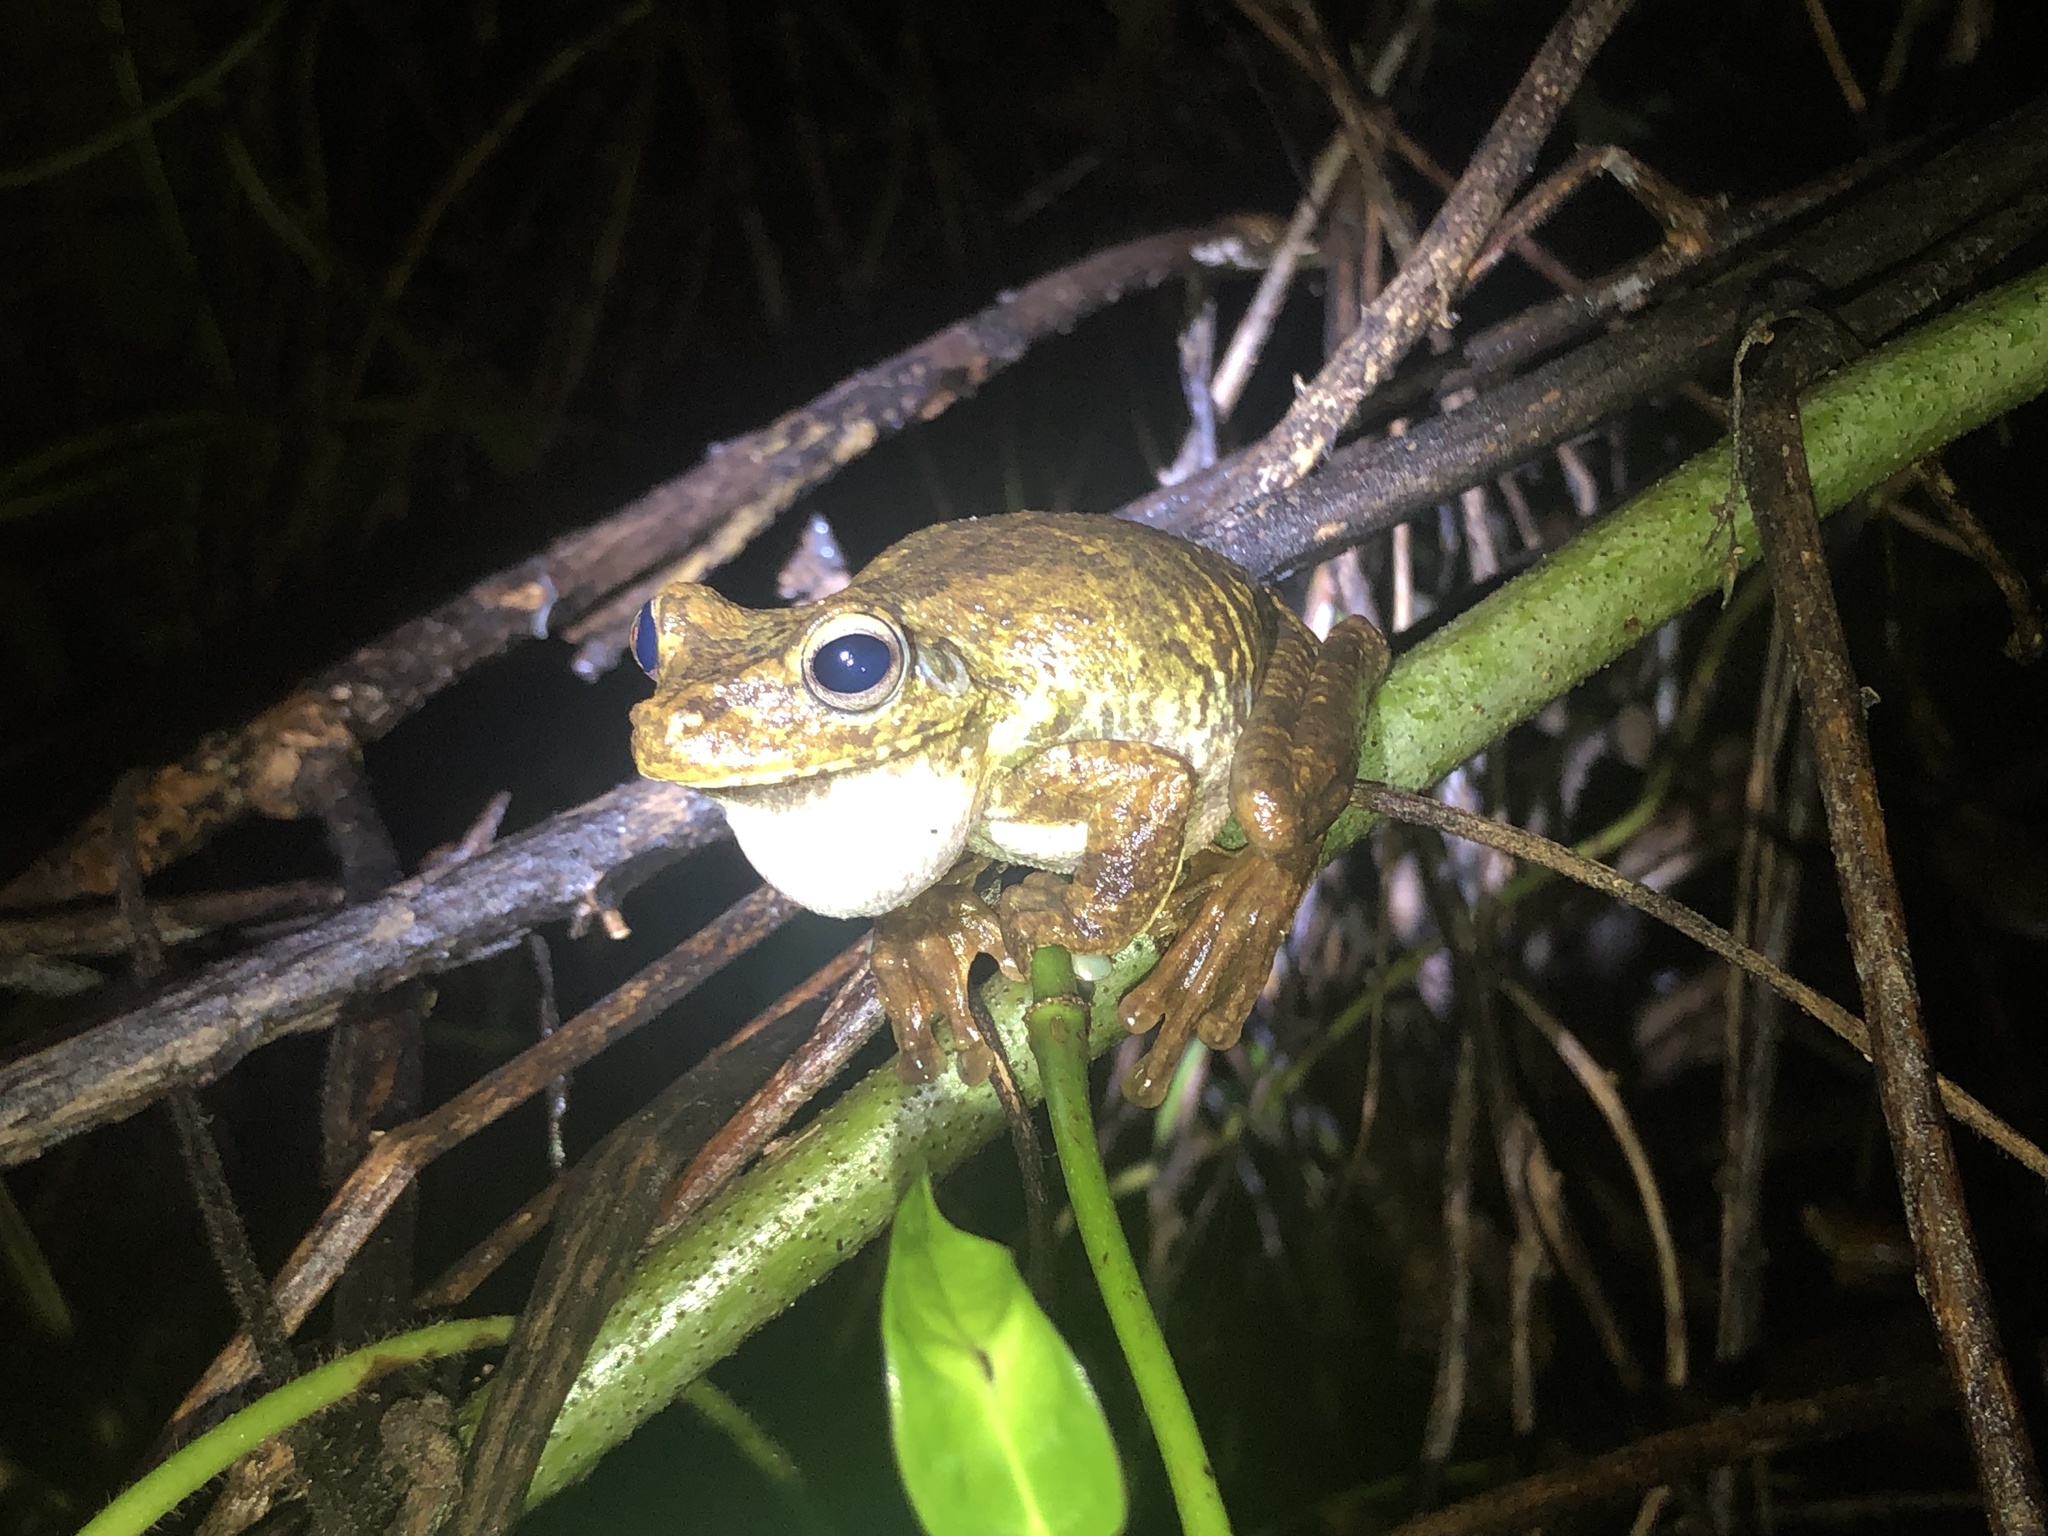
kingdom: Animalia
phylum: Chordata
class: Amphibia
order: Anura
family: Hylidae
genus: Boana
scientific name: Boana rosenbergi
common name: Rosenberg´s gladiator treefrog
